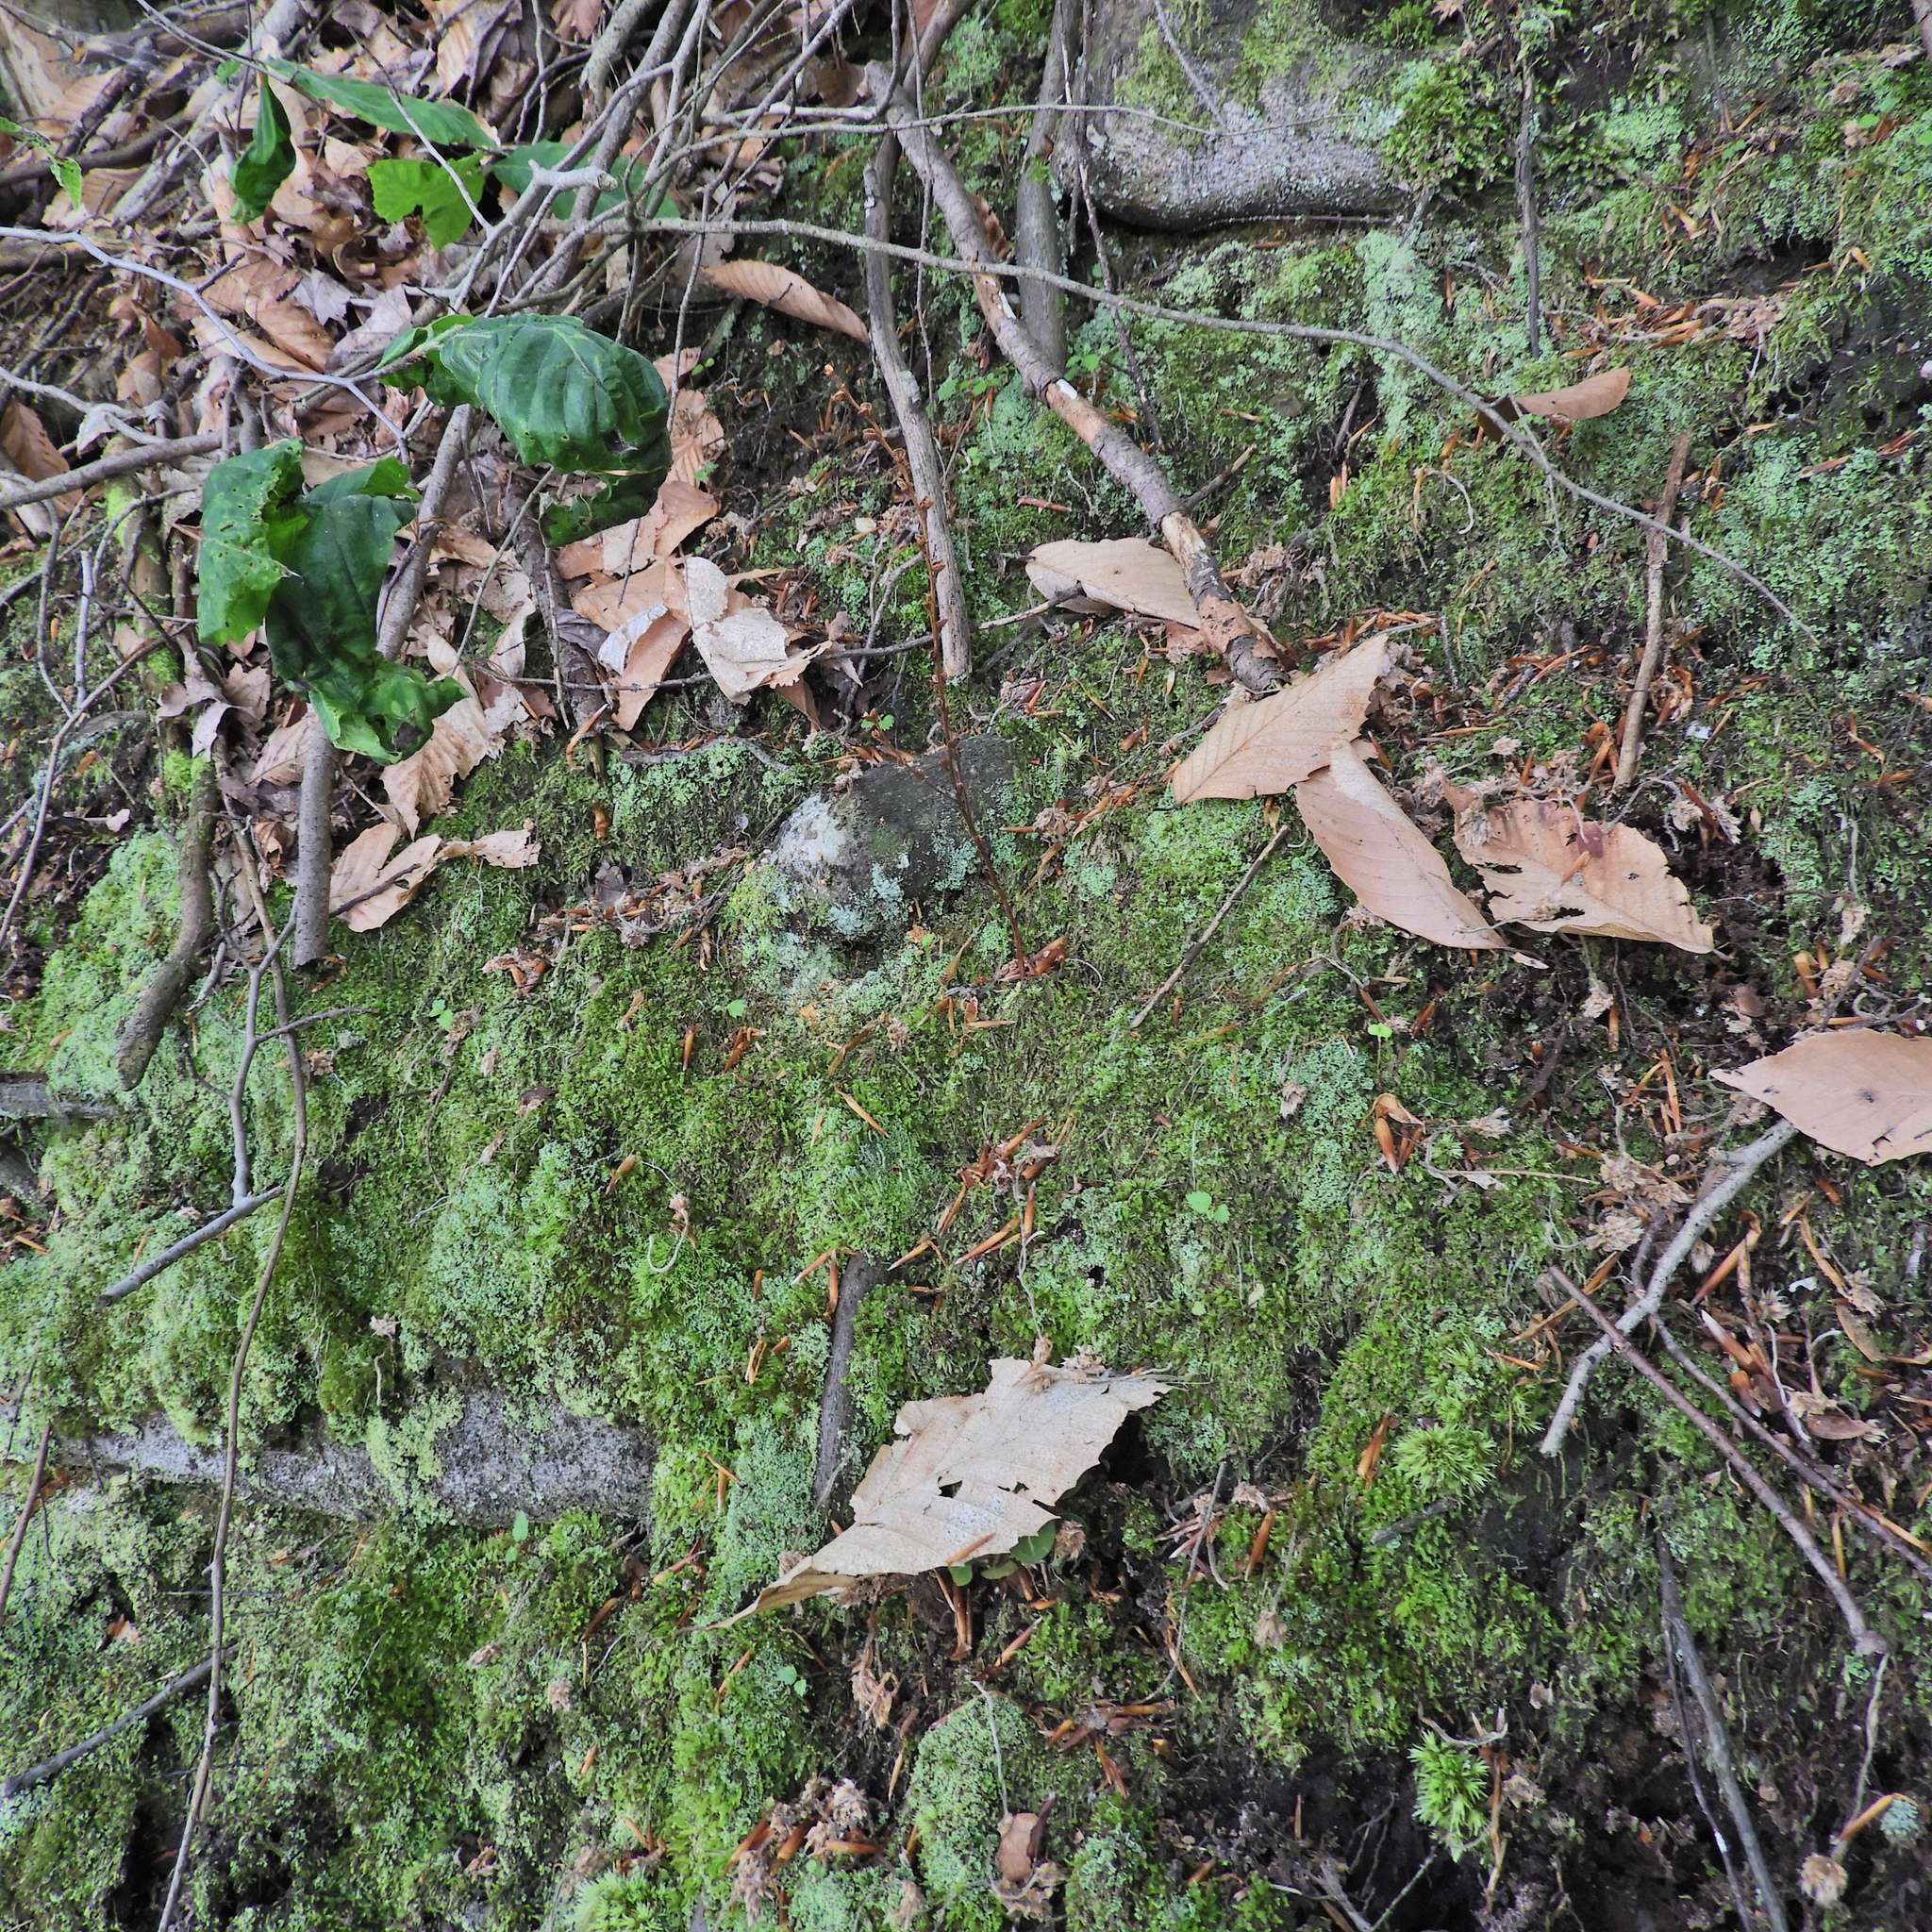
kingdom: Plantae
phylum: Tracheophyta
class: Magnoliopsida
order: Lamiales
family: Orobanchaceae
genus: Epifagus
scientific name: Epifagus virginiana
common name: Beechdrops
